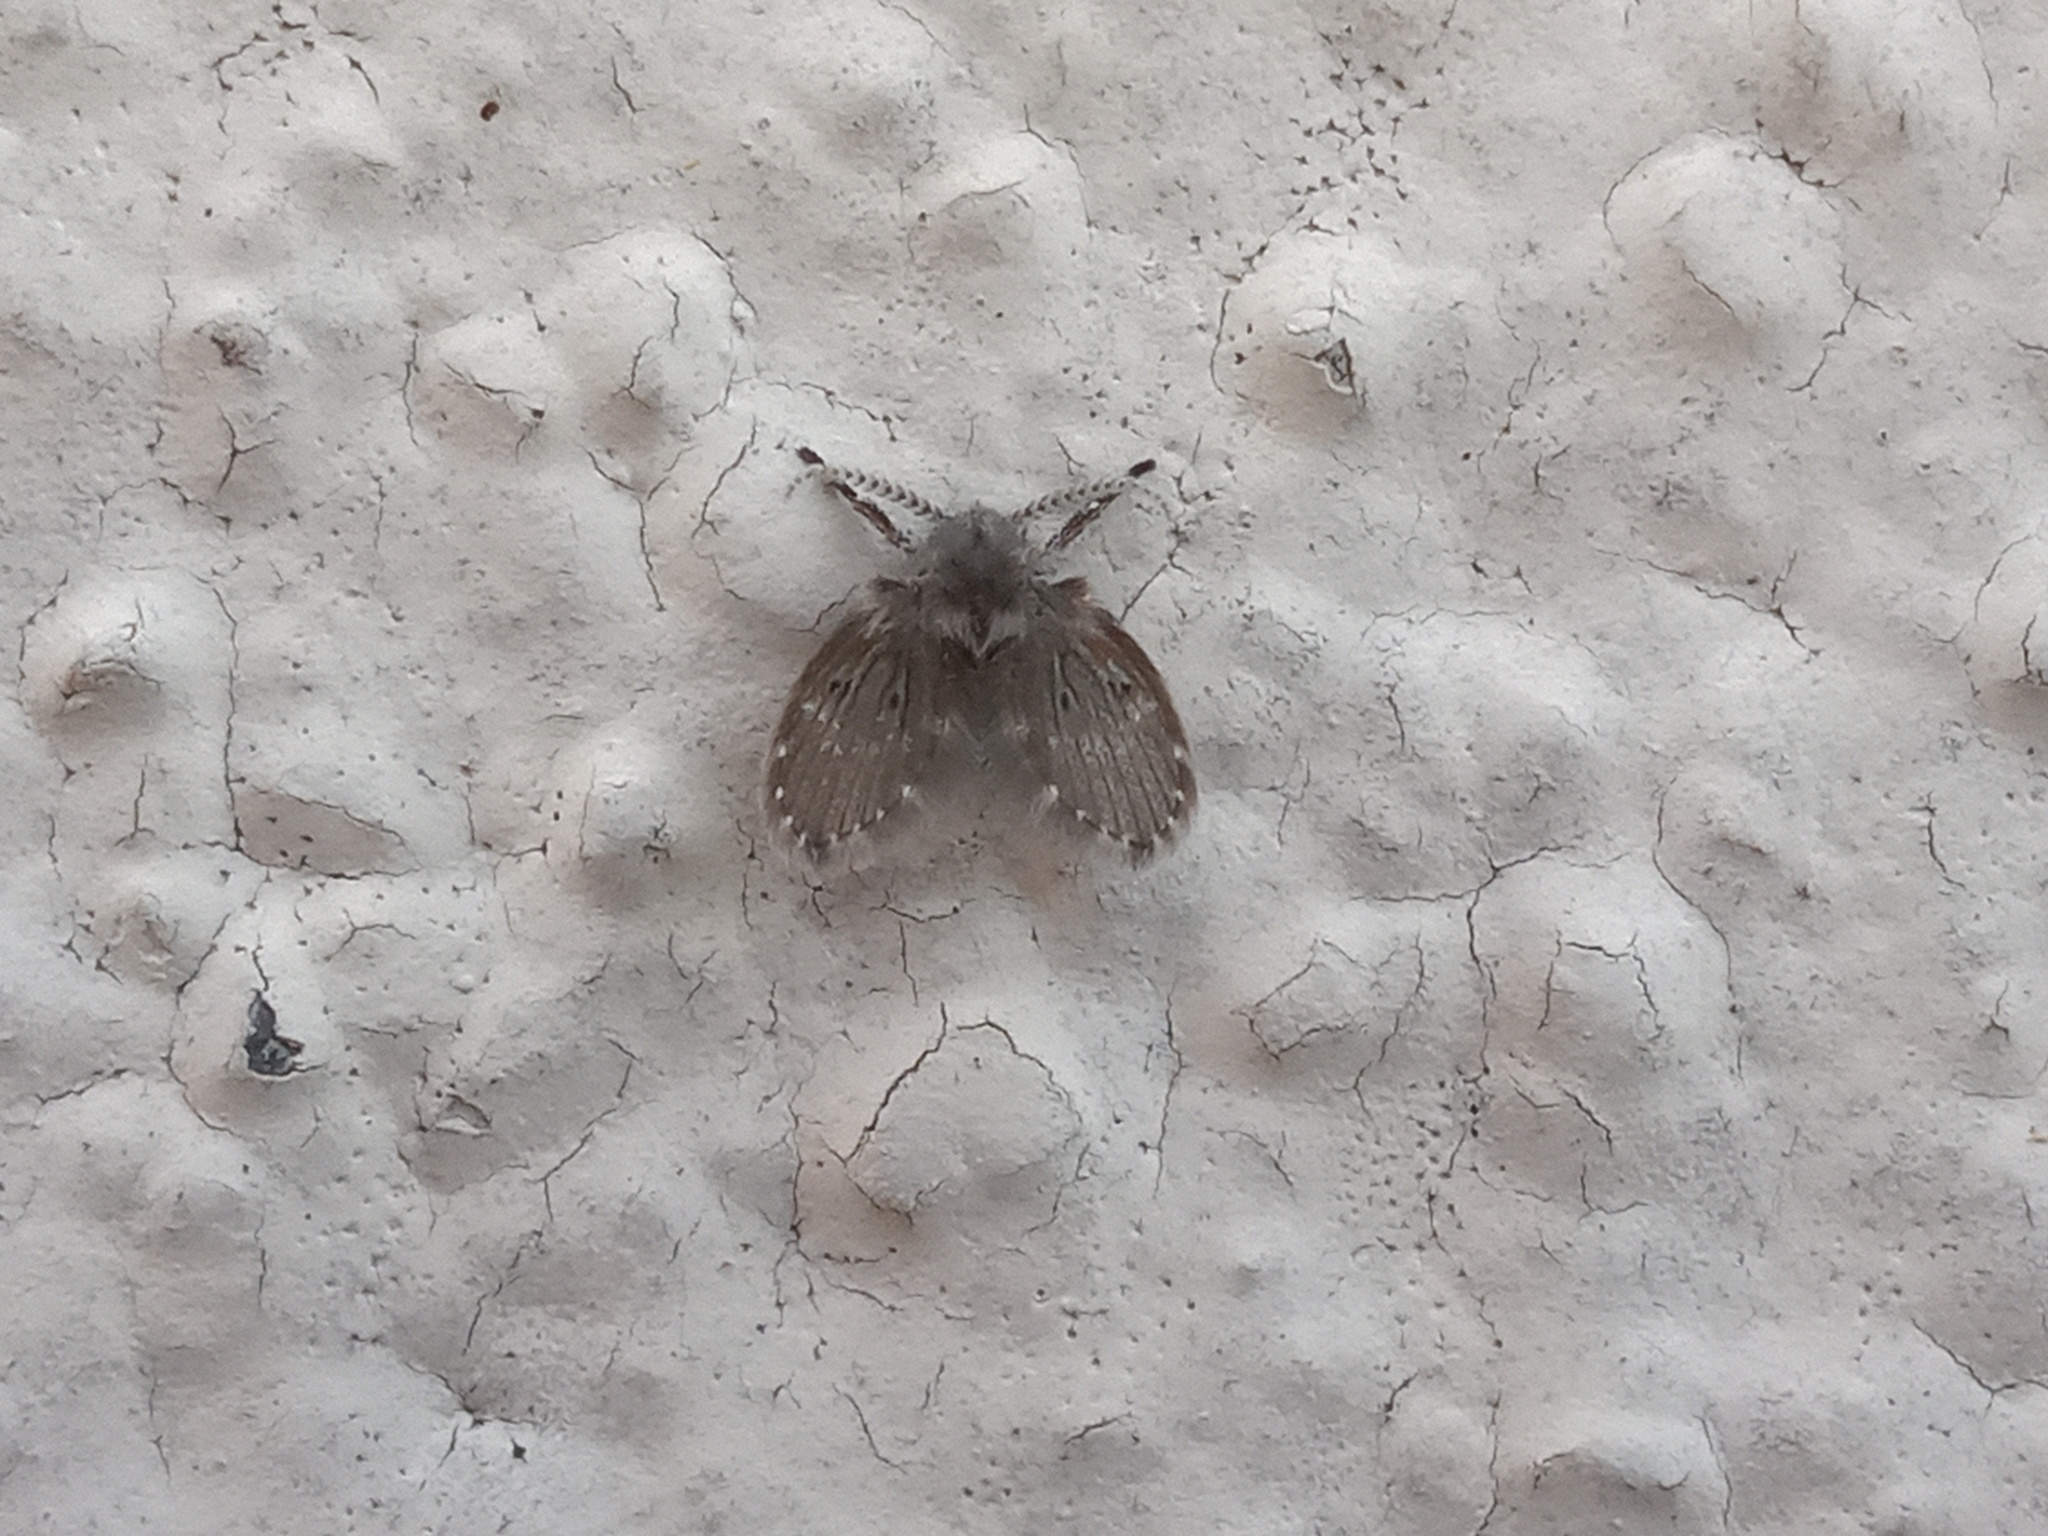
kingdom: Animalia
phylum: Arthropoda
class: Insecta
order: Diptera
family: Psychodidae
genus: Clogmia
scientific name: Clogmia albipunctatus
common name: White-spotted moth fly
